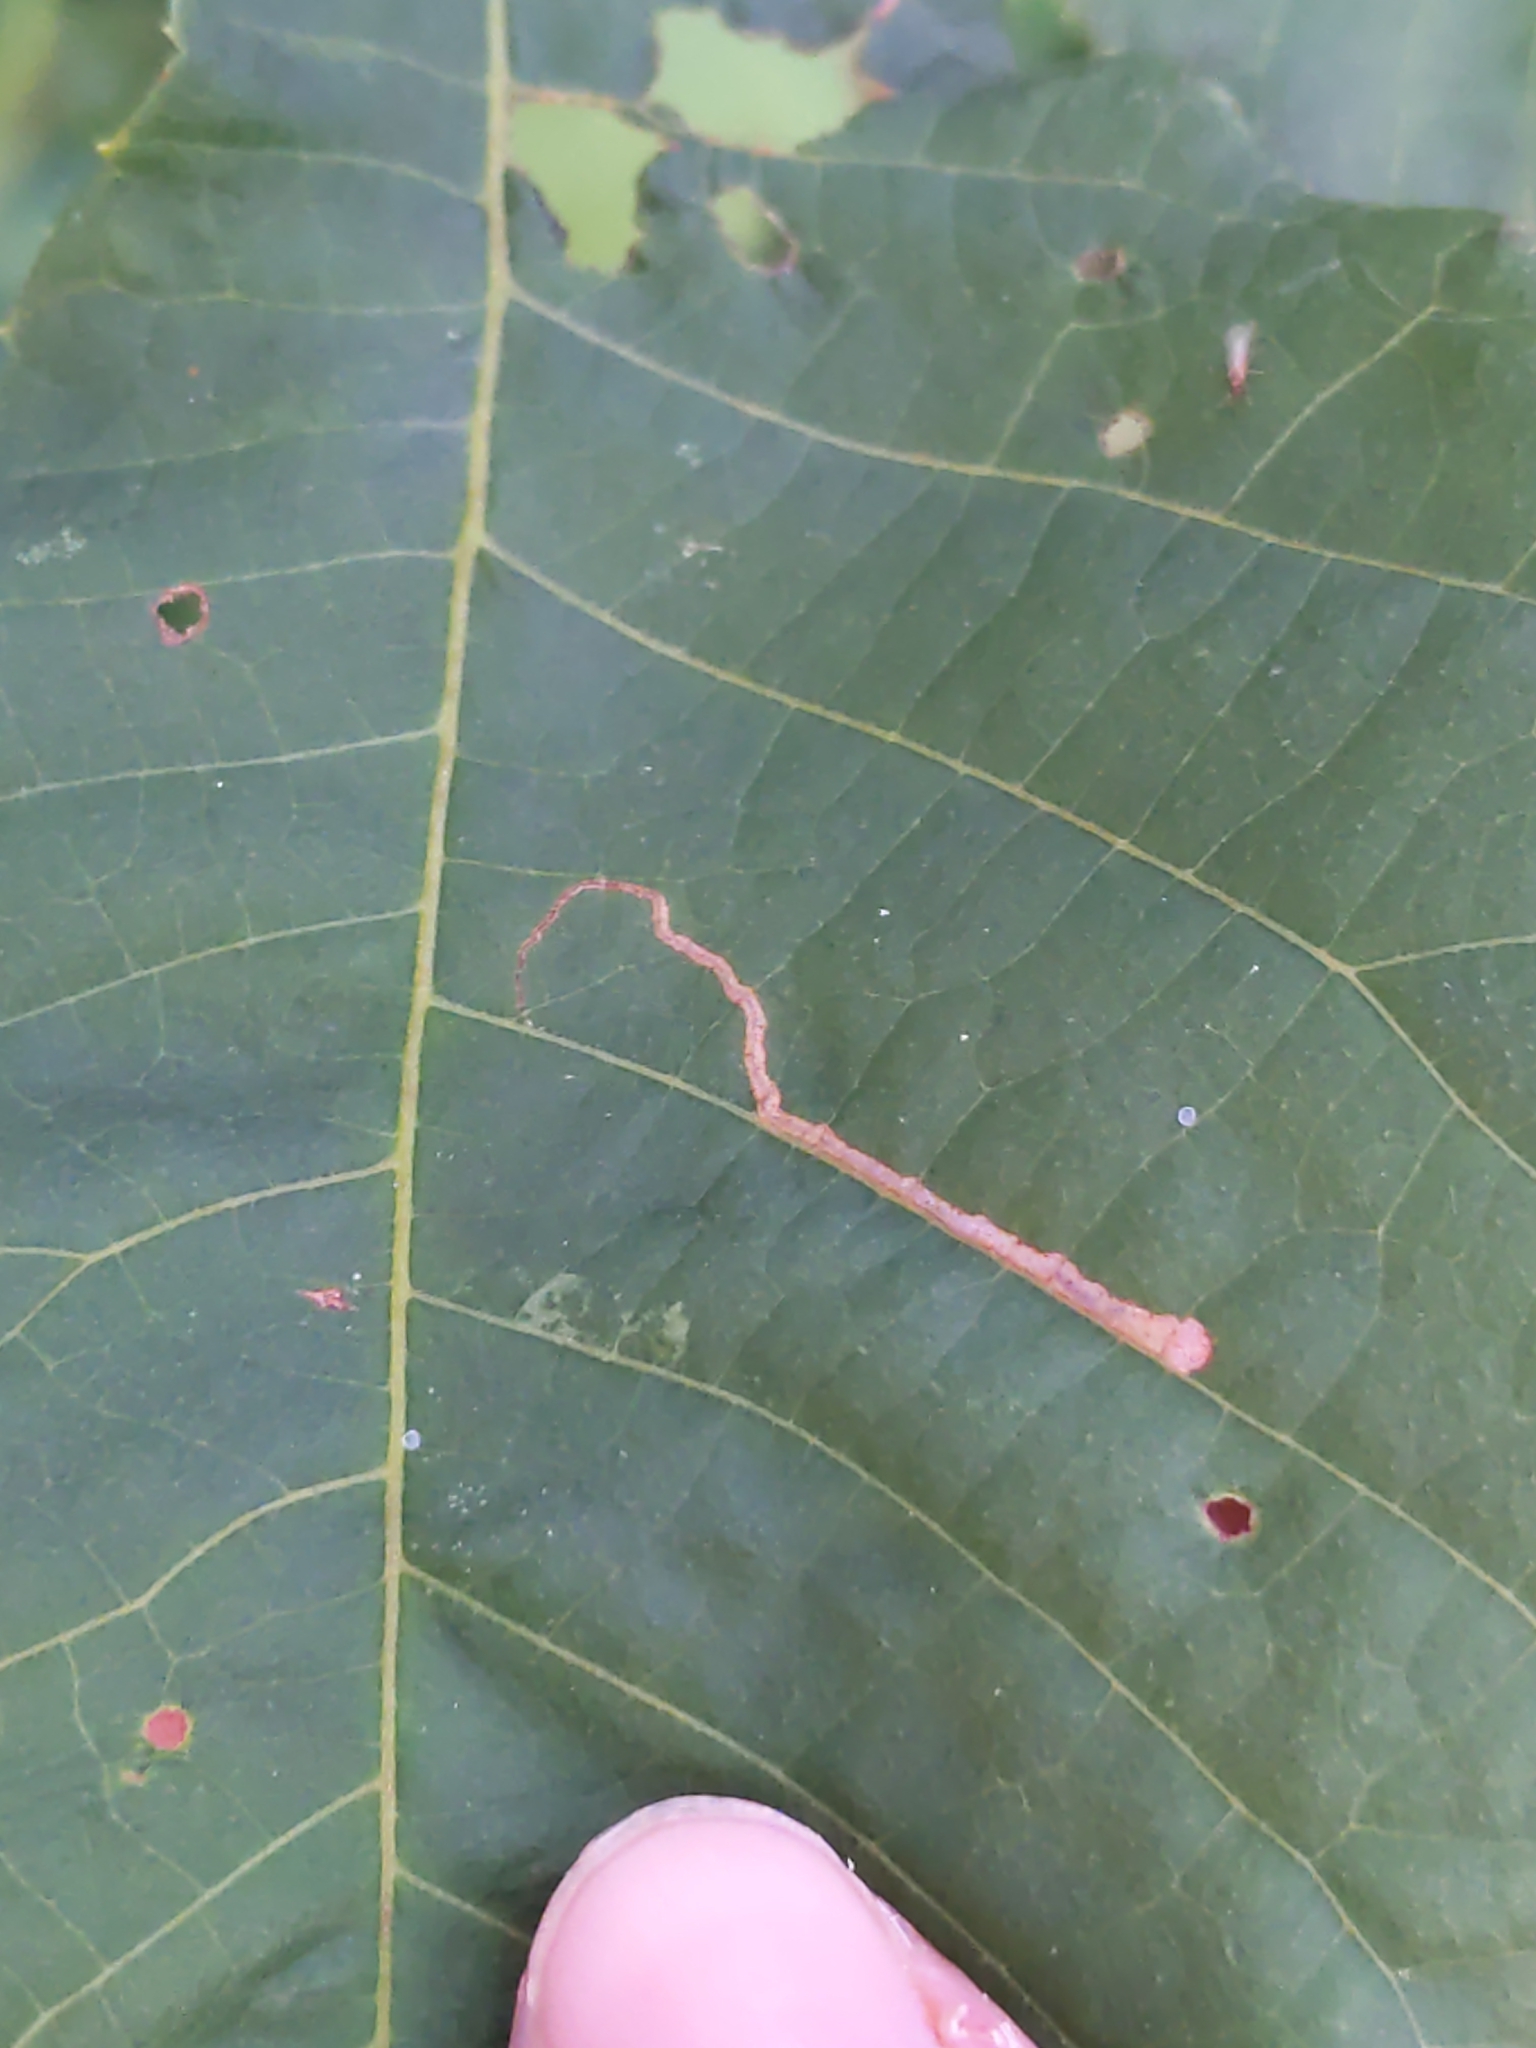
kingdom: Animalia
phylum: Arthropoda
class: Insecta
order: Lepidoptera
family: Nepticulidae
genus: Stigmella
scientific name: Stigmella caryaefoliella
